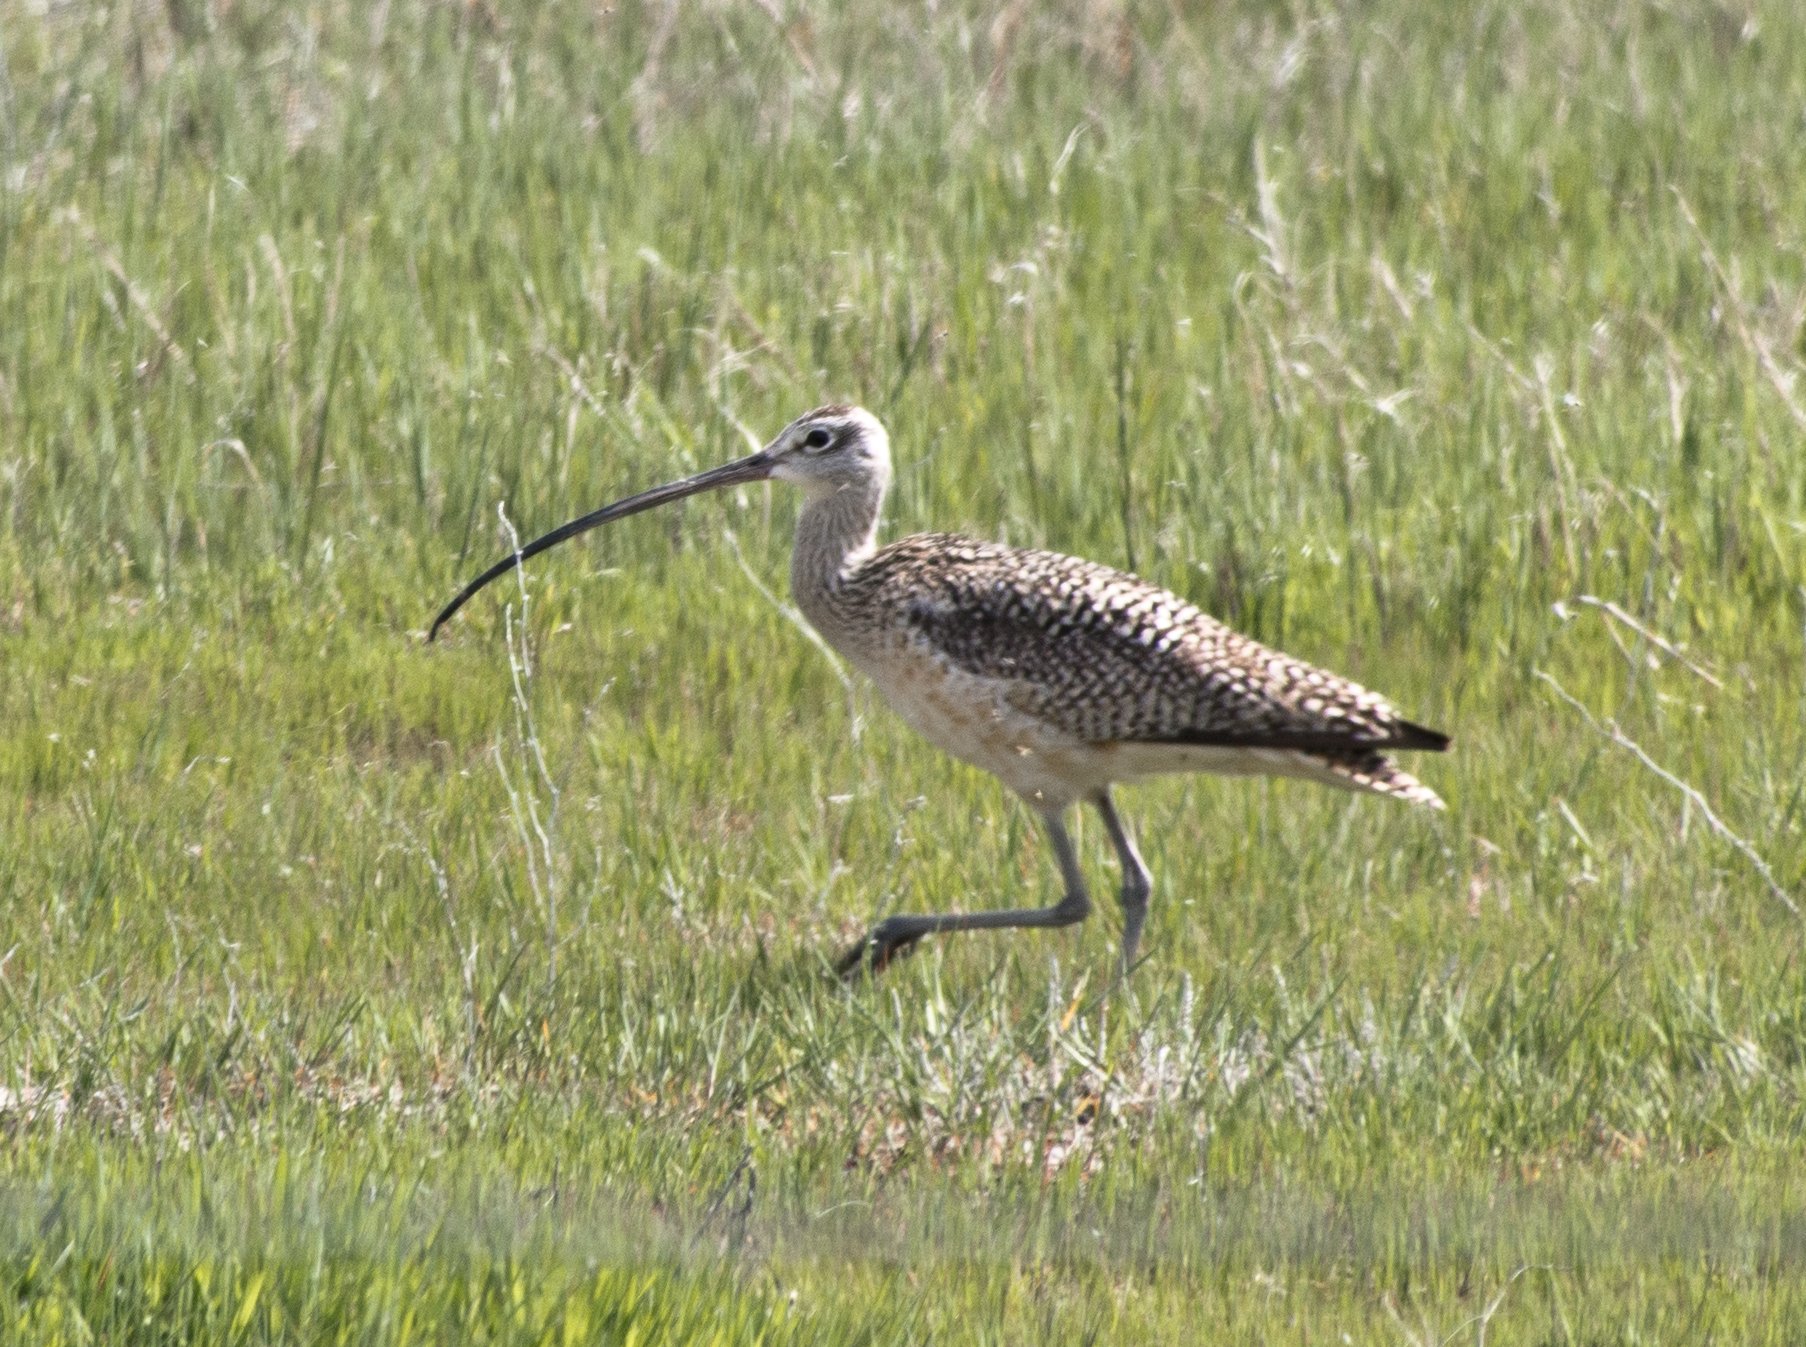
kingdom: Animalia
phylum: Chordata
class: Aves
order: Charadriiformes
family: Scolopacidae
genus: Numenius
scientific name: Numenius americanus
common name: Long-billed curlew
